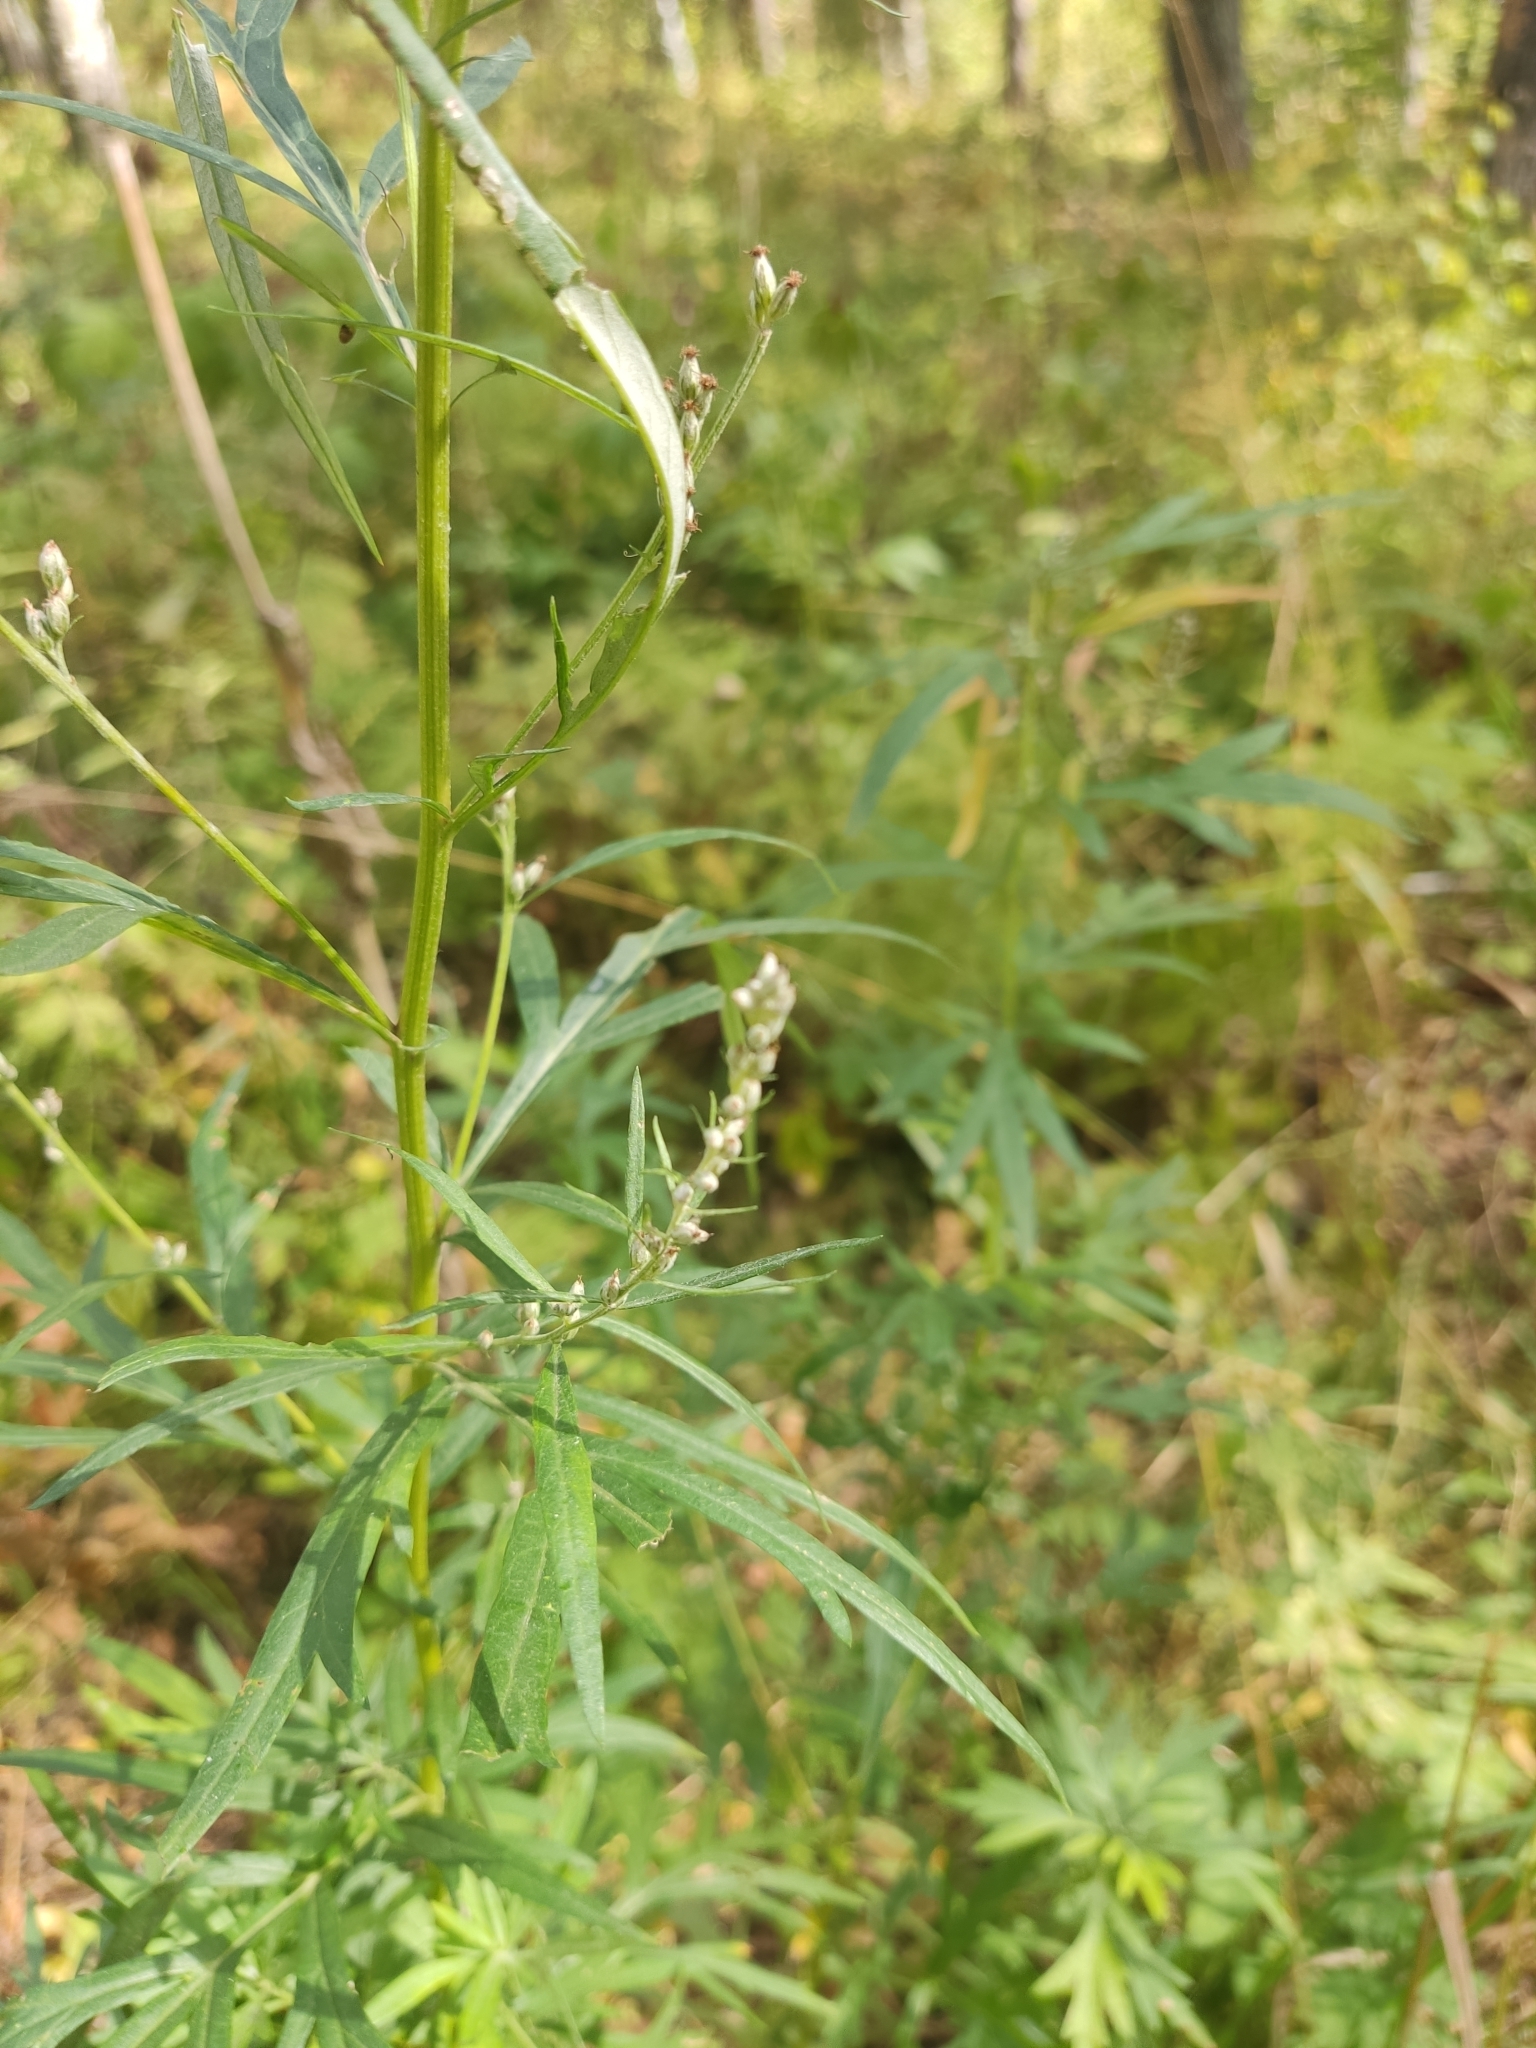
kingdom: Plantae
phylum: Tracheophyta
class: Magnoliopsida
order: Asterales
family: Asteraceae
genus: Artemisia
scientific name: Artemisia vulgaris
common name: Mugwort
